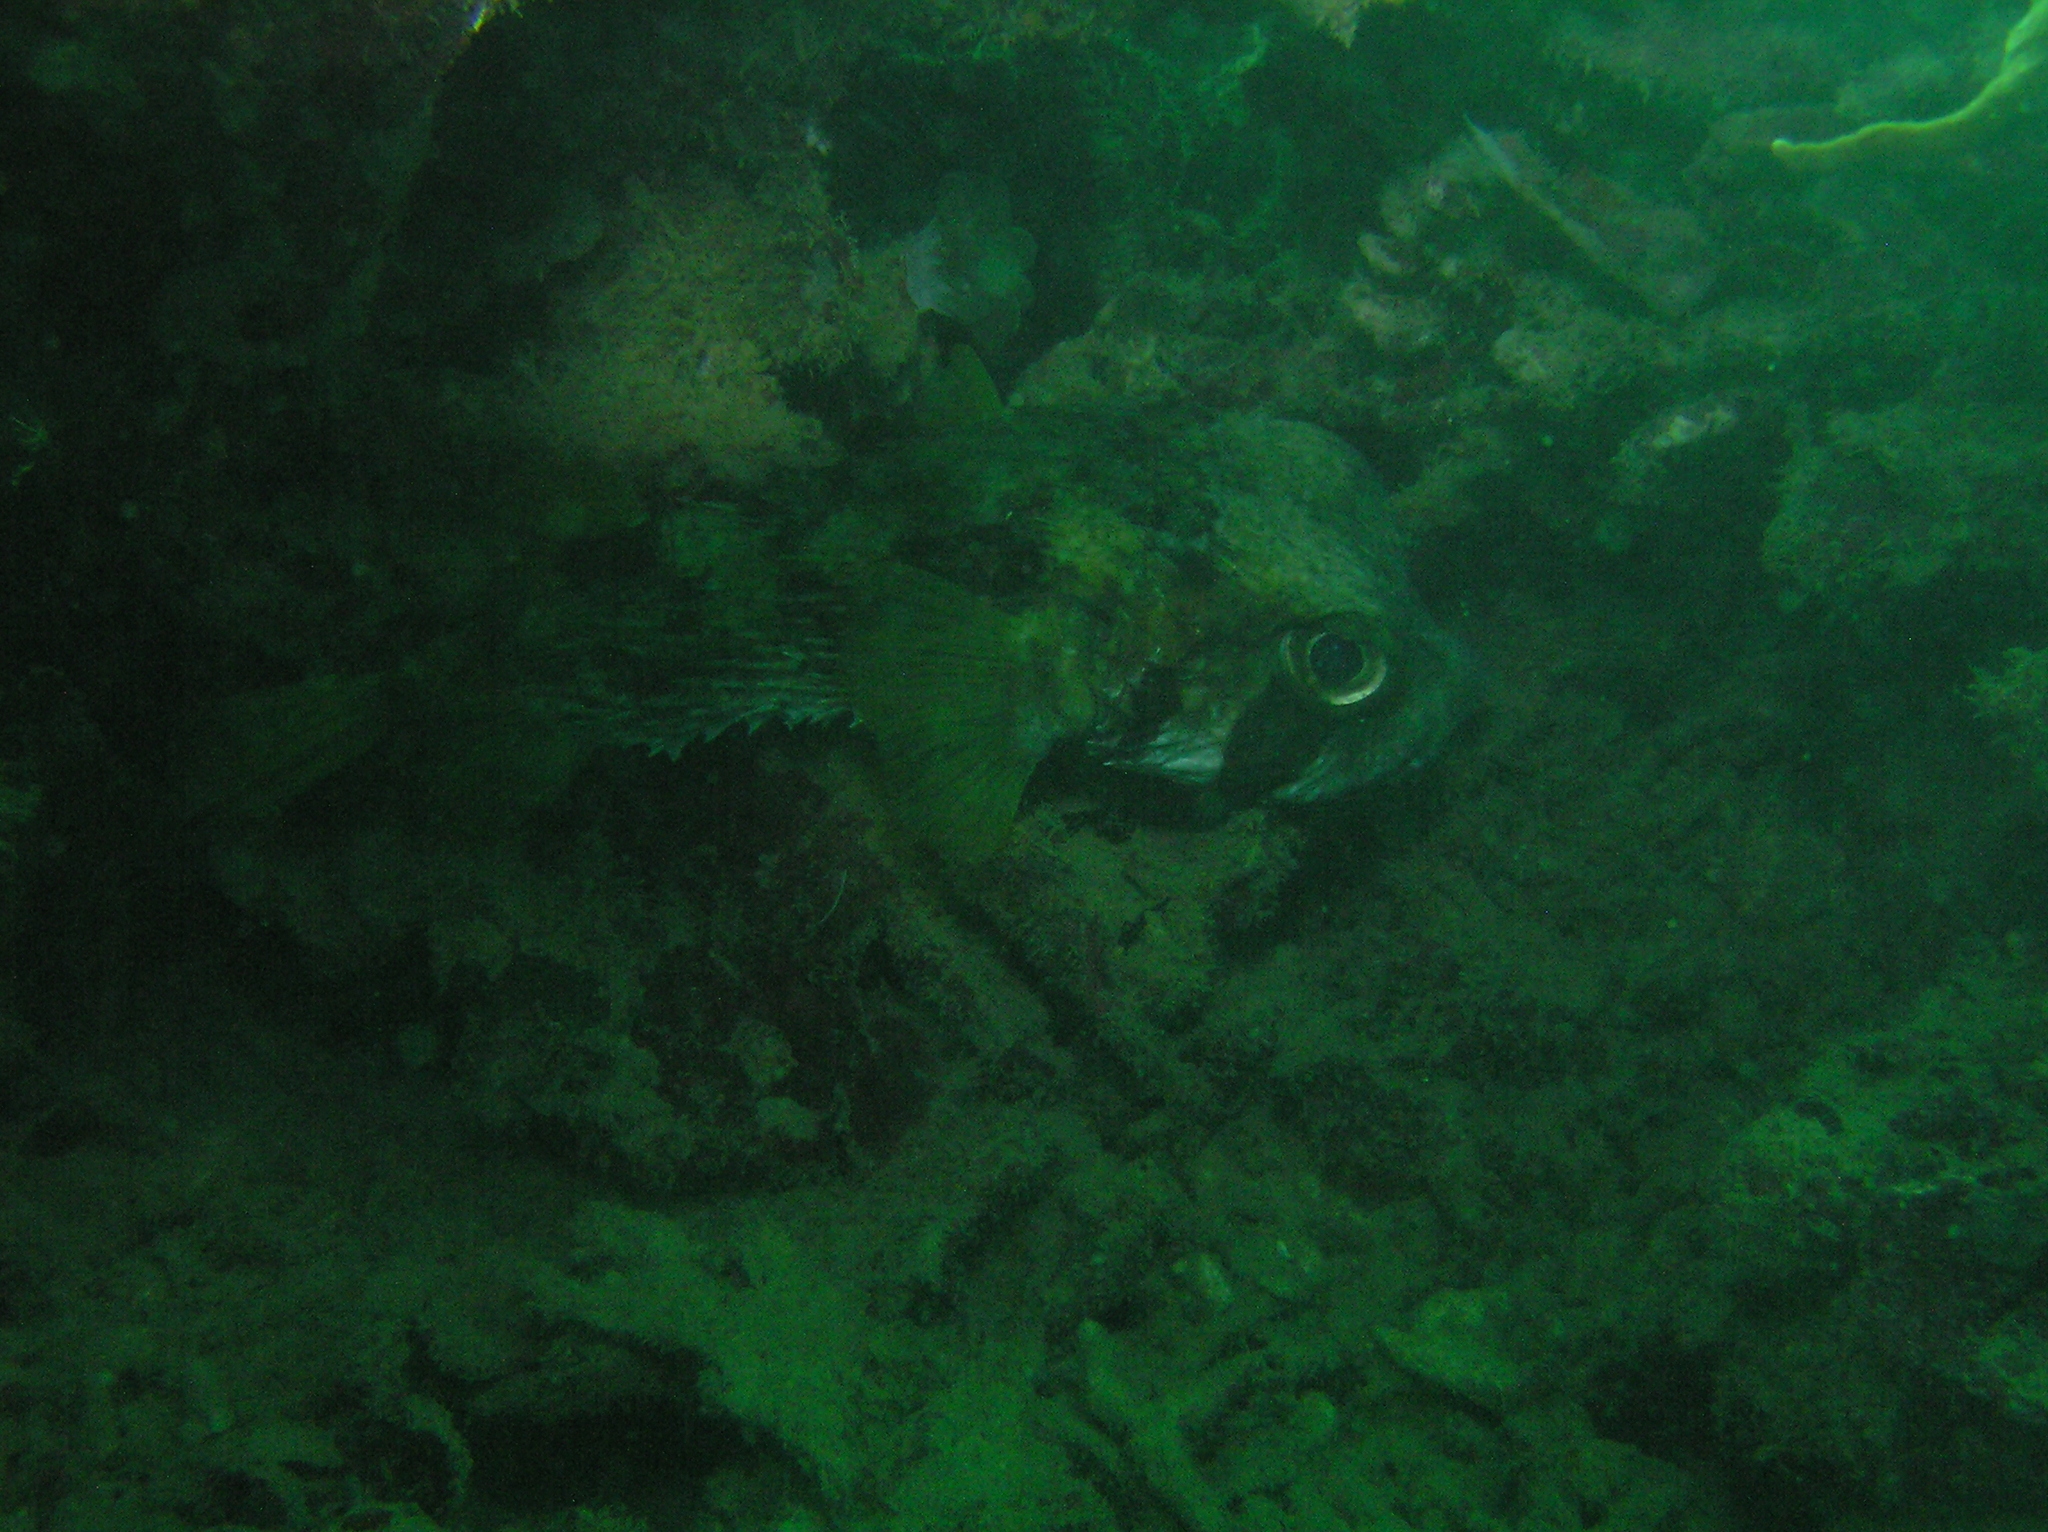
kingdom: Animalia
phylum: Chordata
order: Tetraodontiformes
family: Diodontidae
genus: Diodon
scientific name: Diodon liturosus
